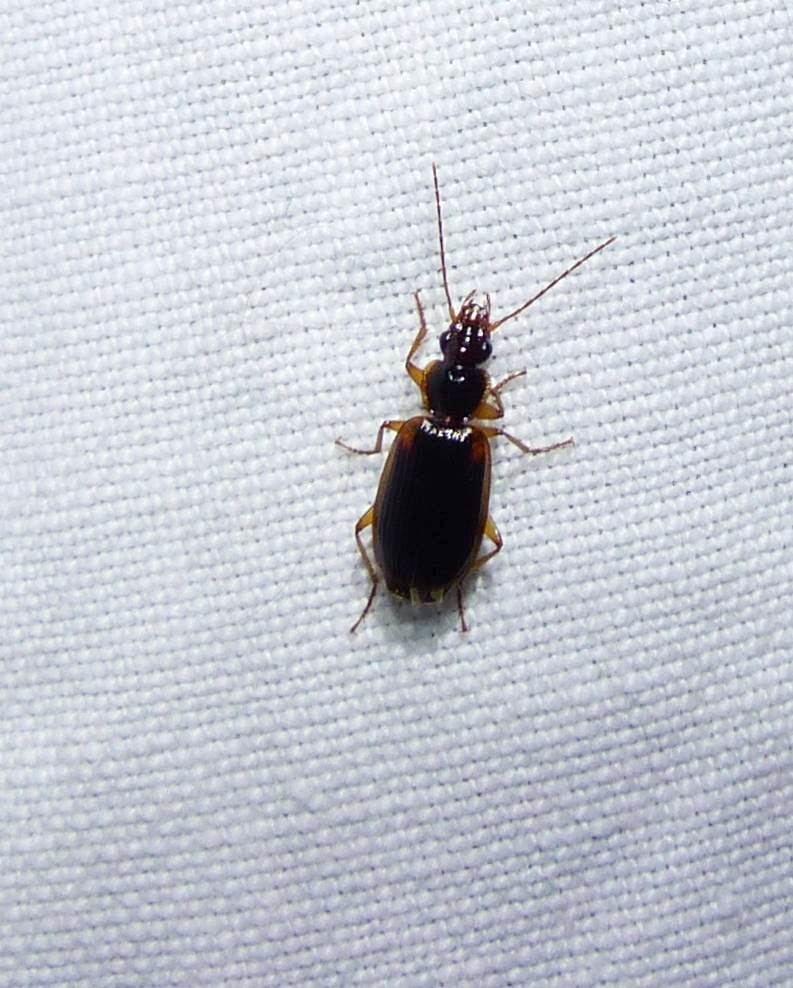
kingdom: Animalia
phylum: Arthropoda
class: Insecta
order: Coleoptera
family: Carabidae
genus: Pinacodera
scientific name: Pinacodera limbata
